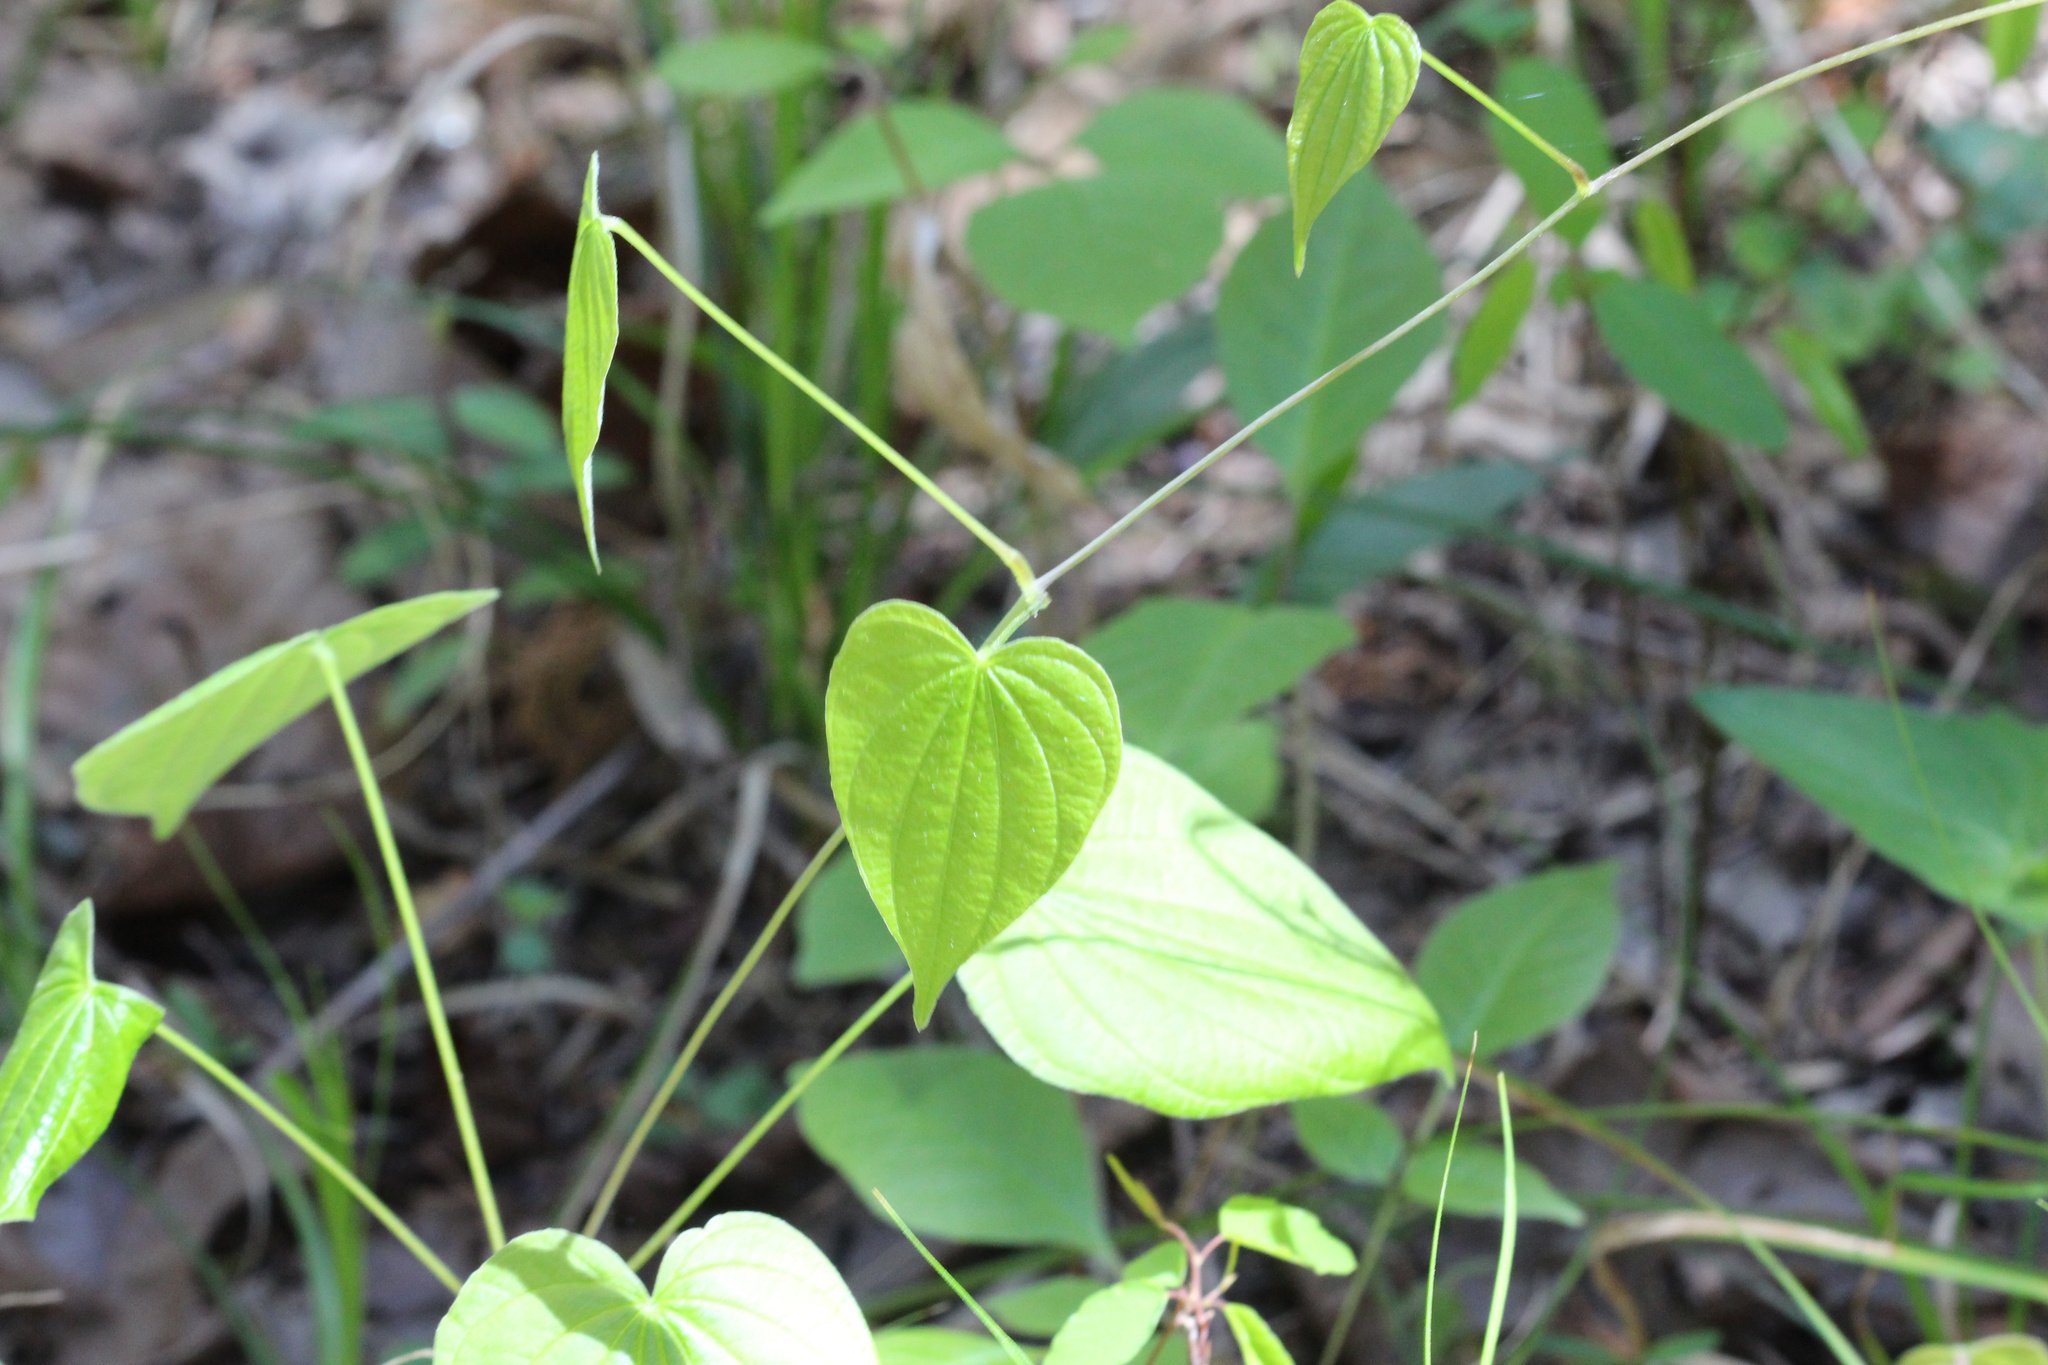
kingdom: Plantae
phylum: Tracheophyta
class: Liliopsida
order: Dioscoreales
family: Dioscoreaceae
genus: Dioscorea
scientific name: Dioscorea villosa
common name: Wild yam
